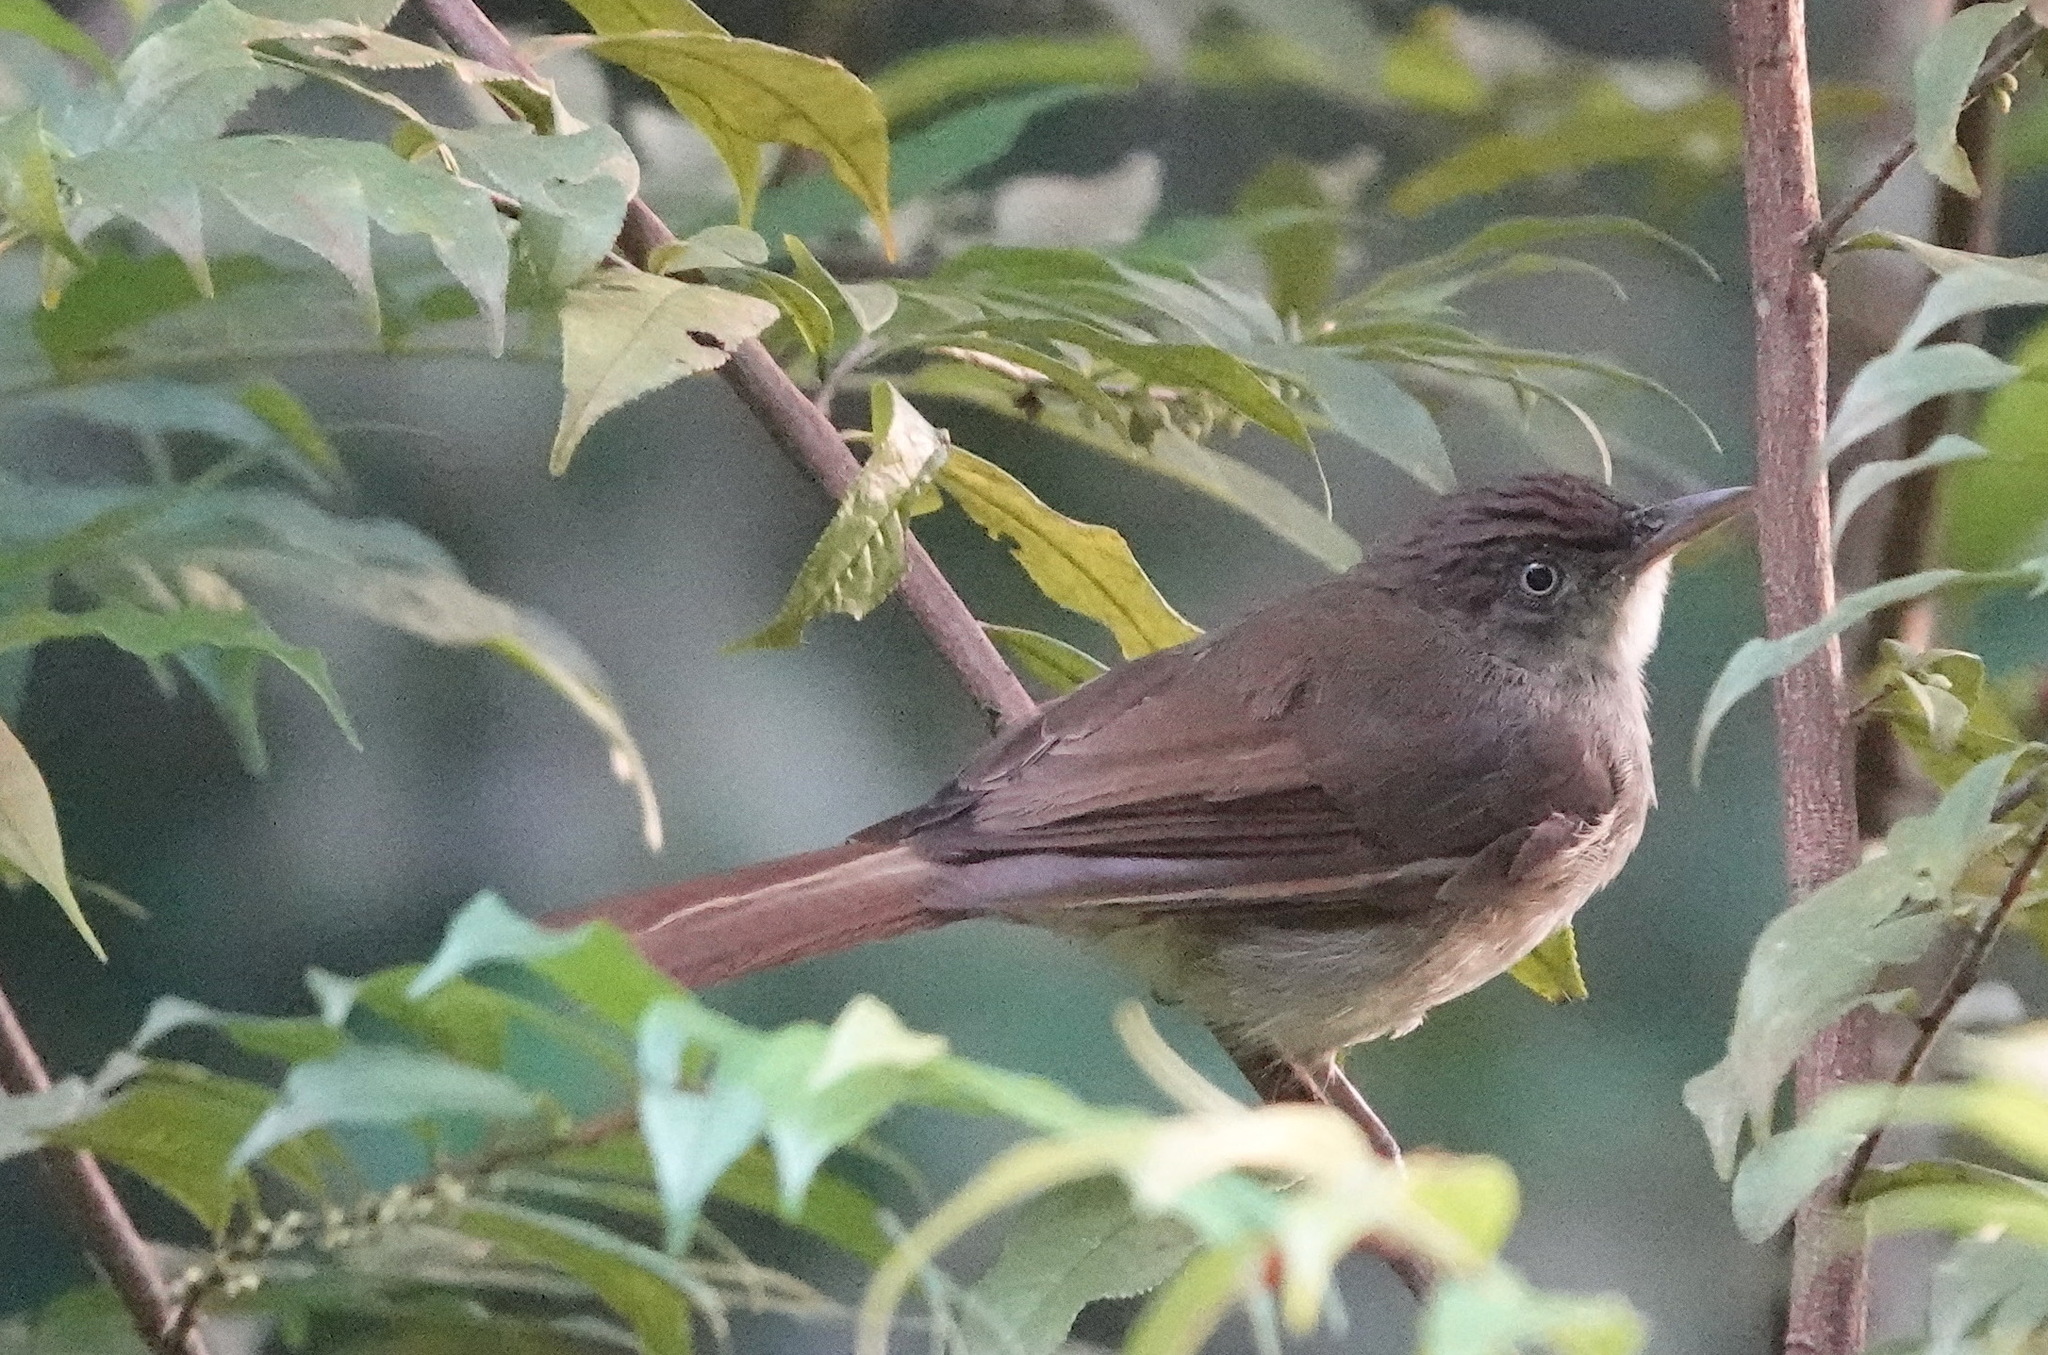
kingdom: Animalia
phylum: Chordata
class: Aves
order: Passeriformes
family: Pycnonotidae
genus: Iole
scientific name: Iole crypta
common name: Buff-vented bulbul
